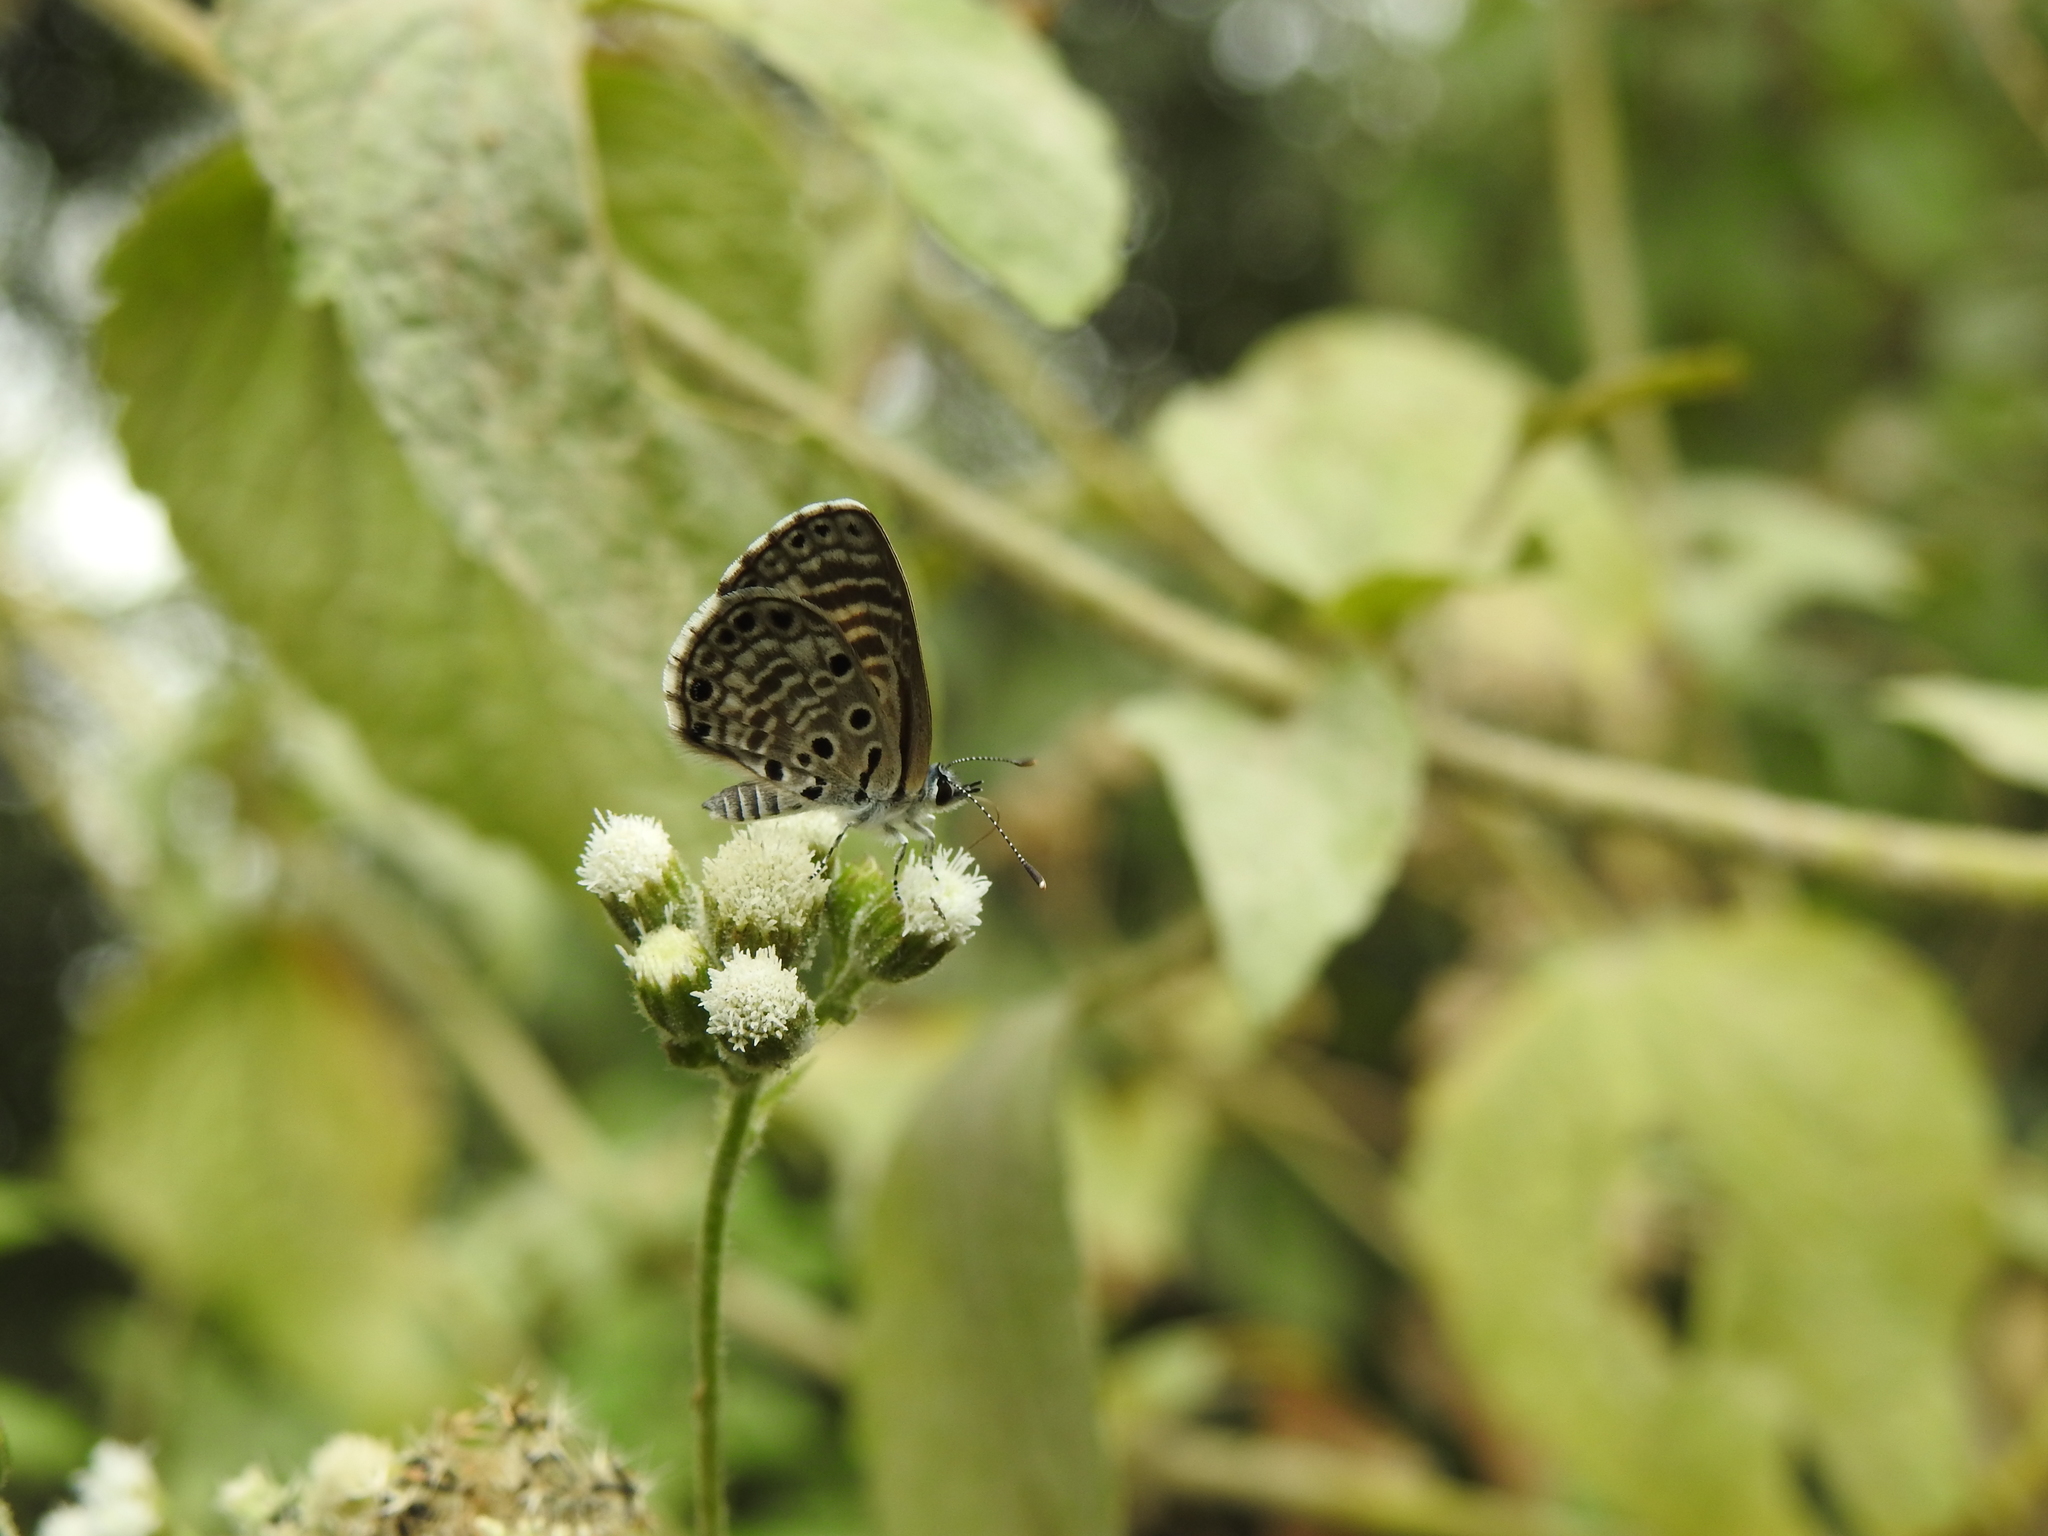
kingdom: Animalia
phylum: Arthropoda
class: Insecta
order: Lepidoptera
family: Lycaenidae
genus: Azanus
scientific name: Azanus jesous
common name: African babul blue
